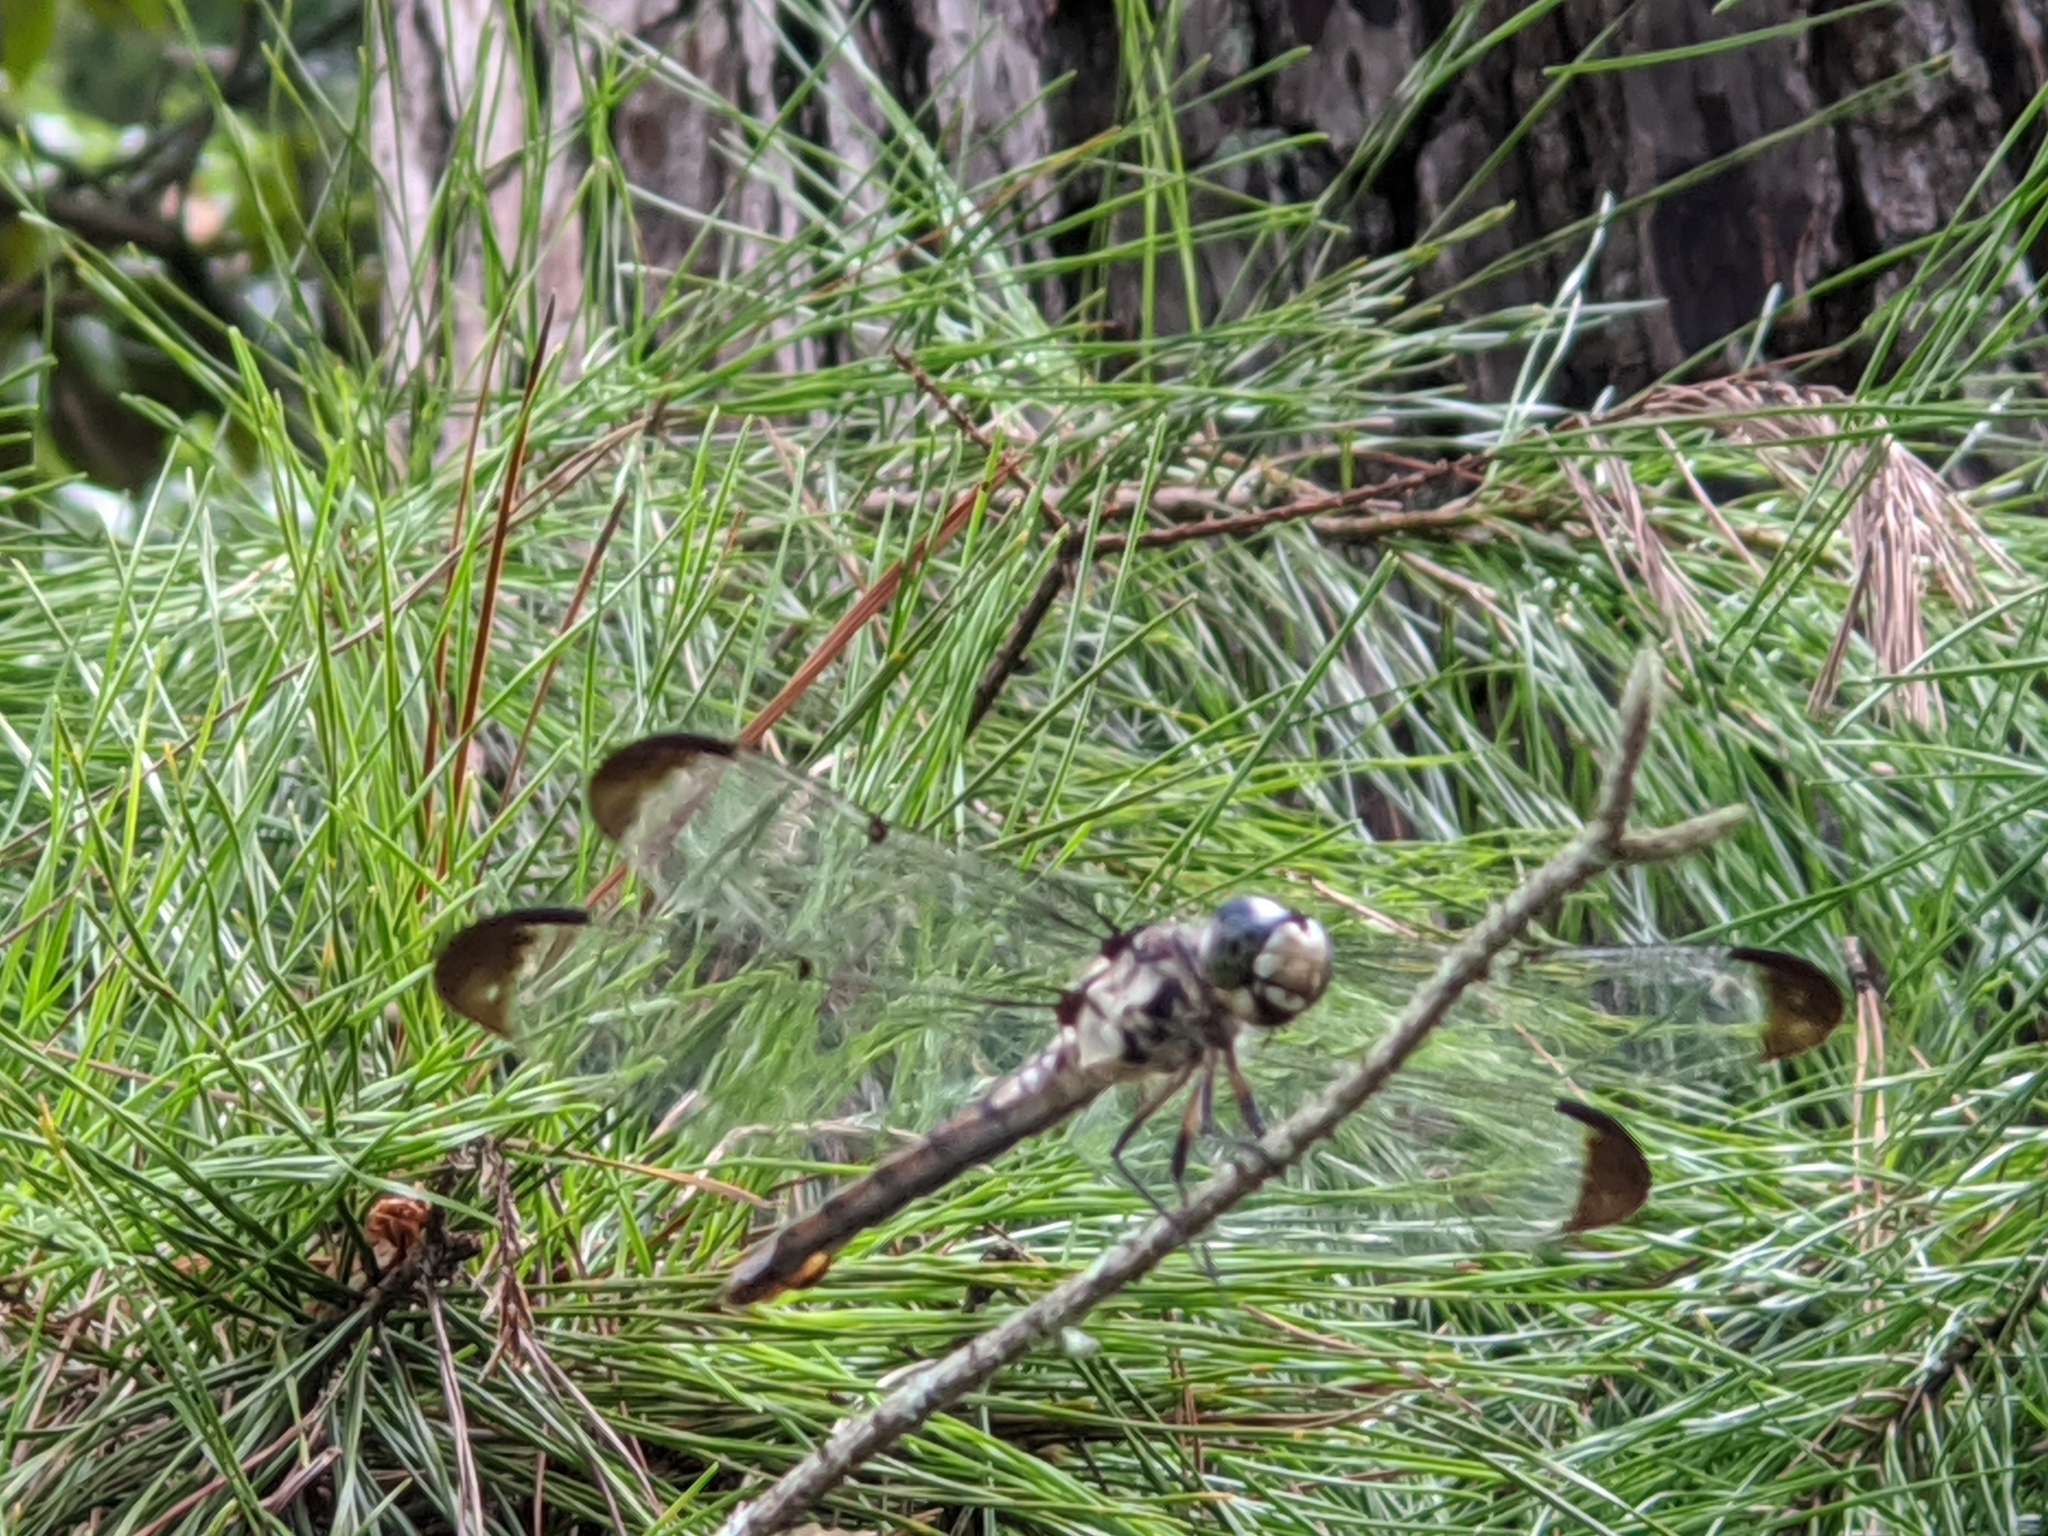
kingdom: Animalia
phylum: Arthropoda
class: Insecta
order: Odonata
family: Libellulidae
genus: Libellula
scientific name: Libellula vibrans
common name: Great blue skimmer
